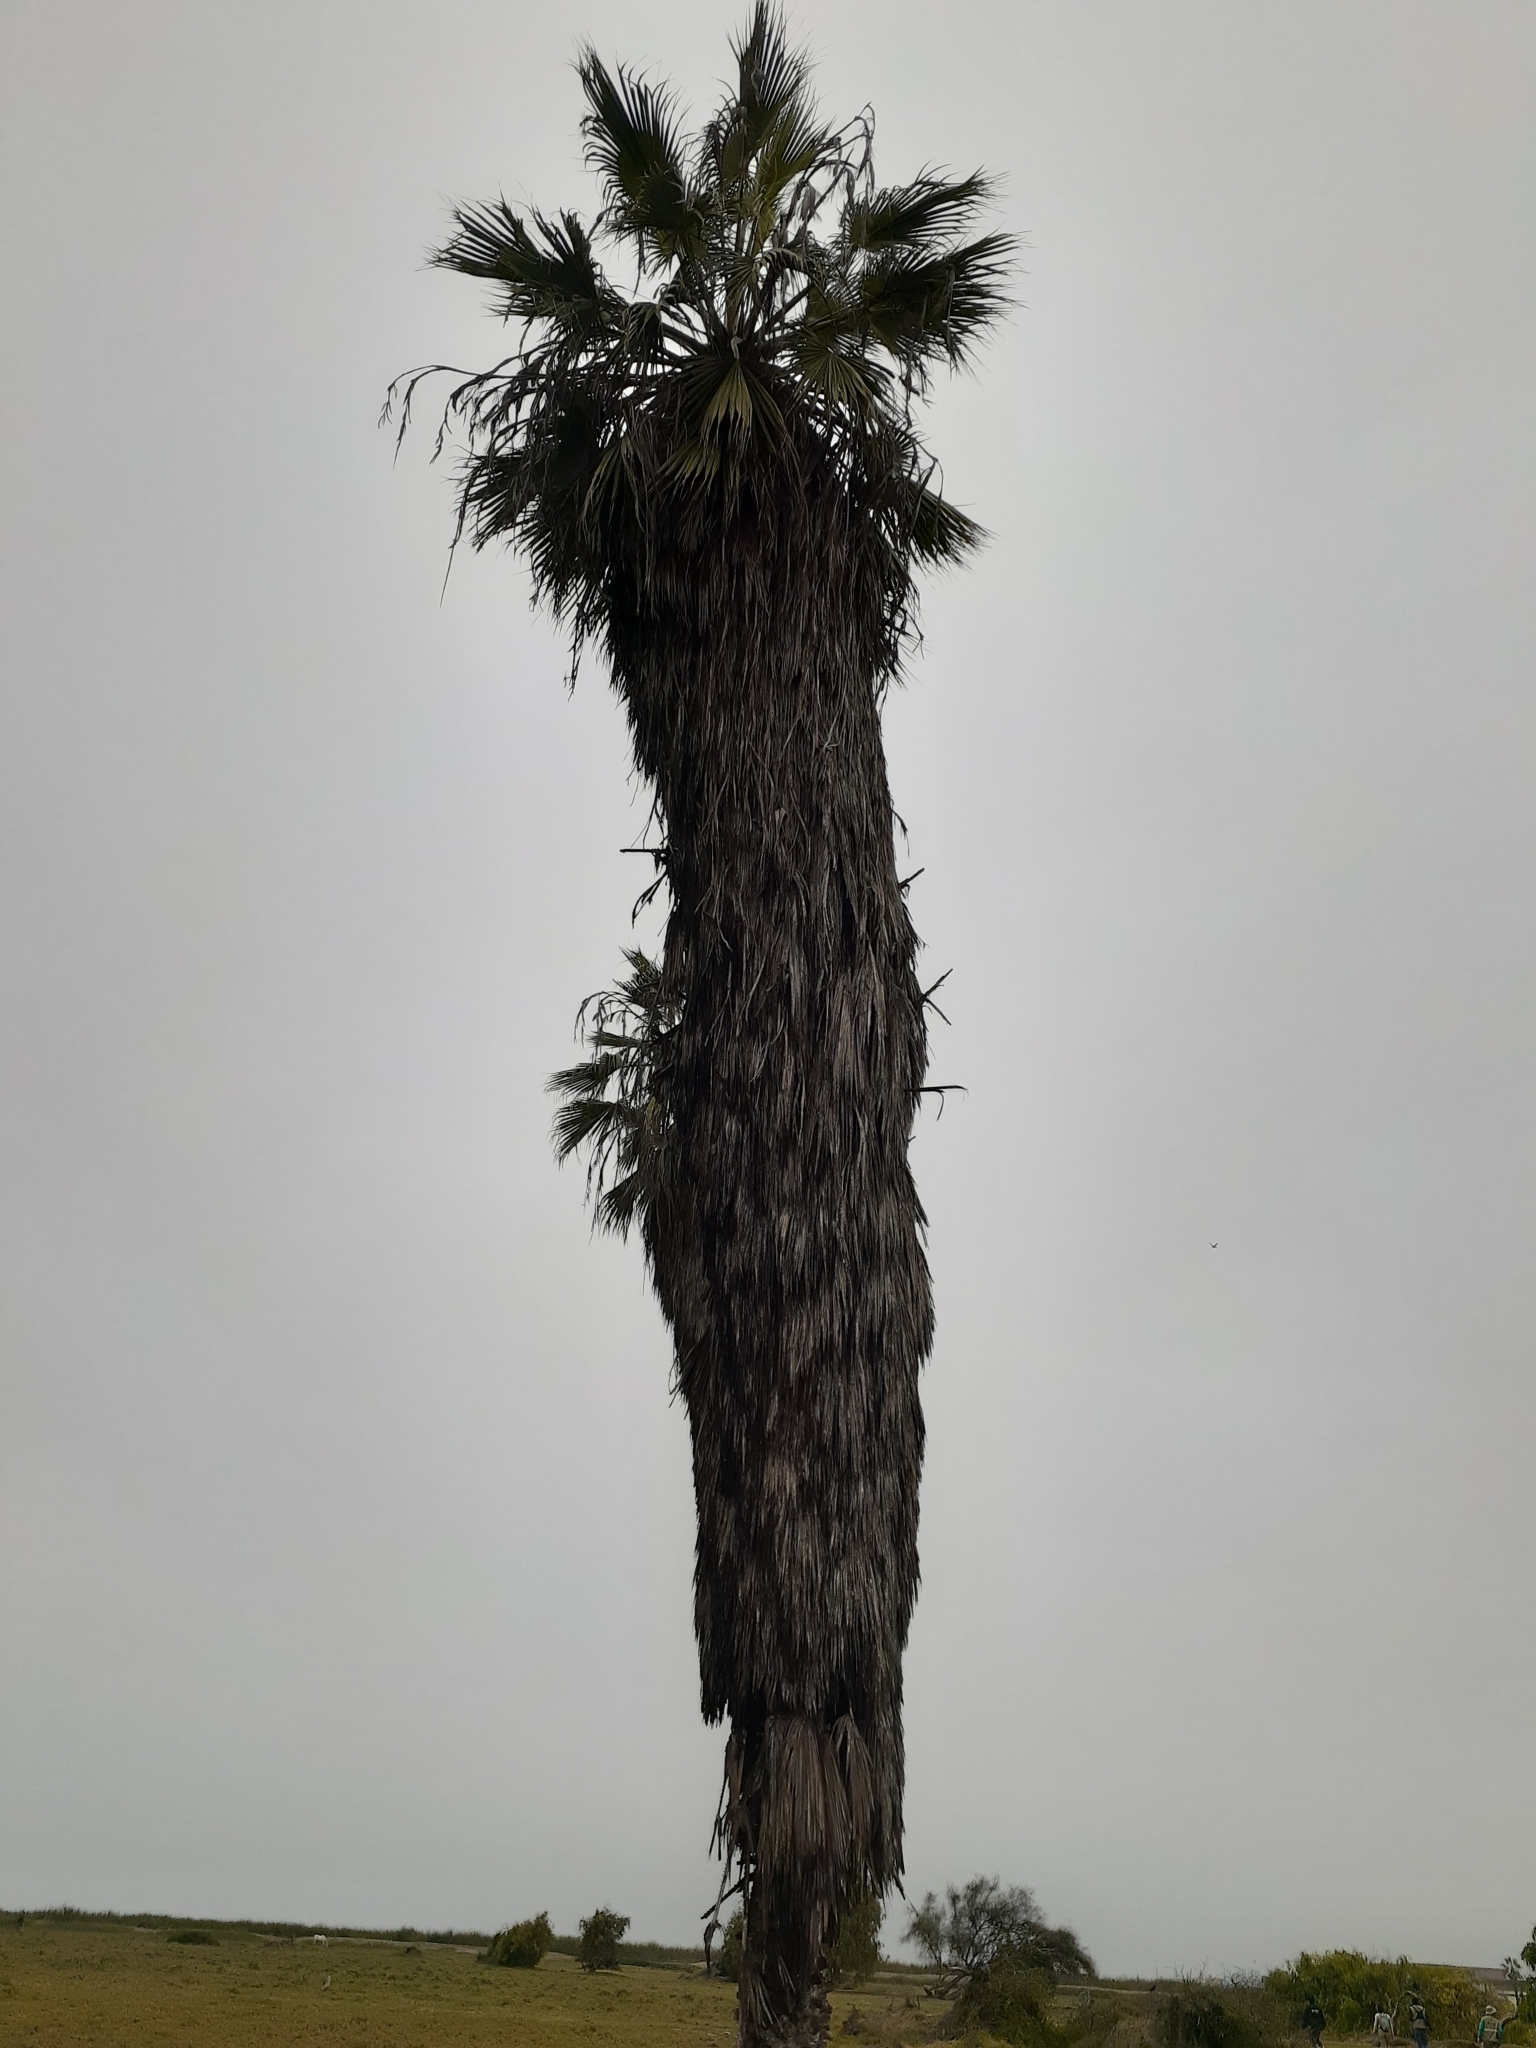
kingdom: Plantae
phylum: Tracheophyta
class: Liliopsida
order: Arecales
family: Arecaceae
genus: Washingtonia
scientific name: Washingtonia robusta
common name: Mexican fan palm
